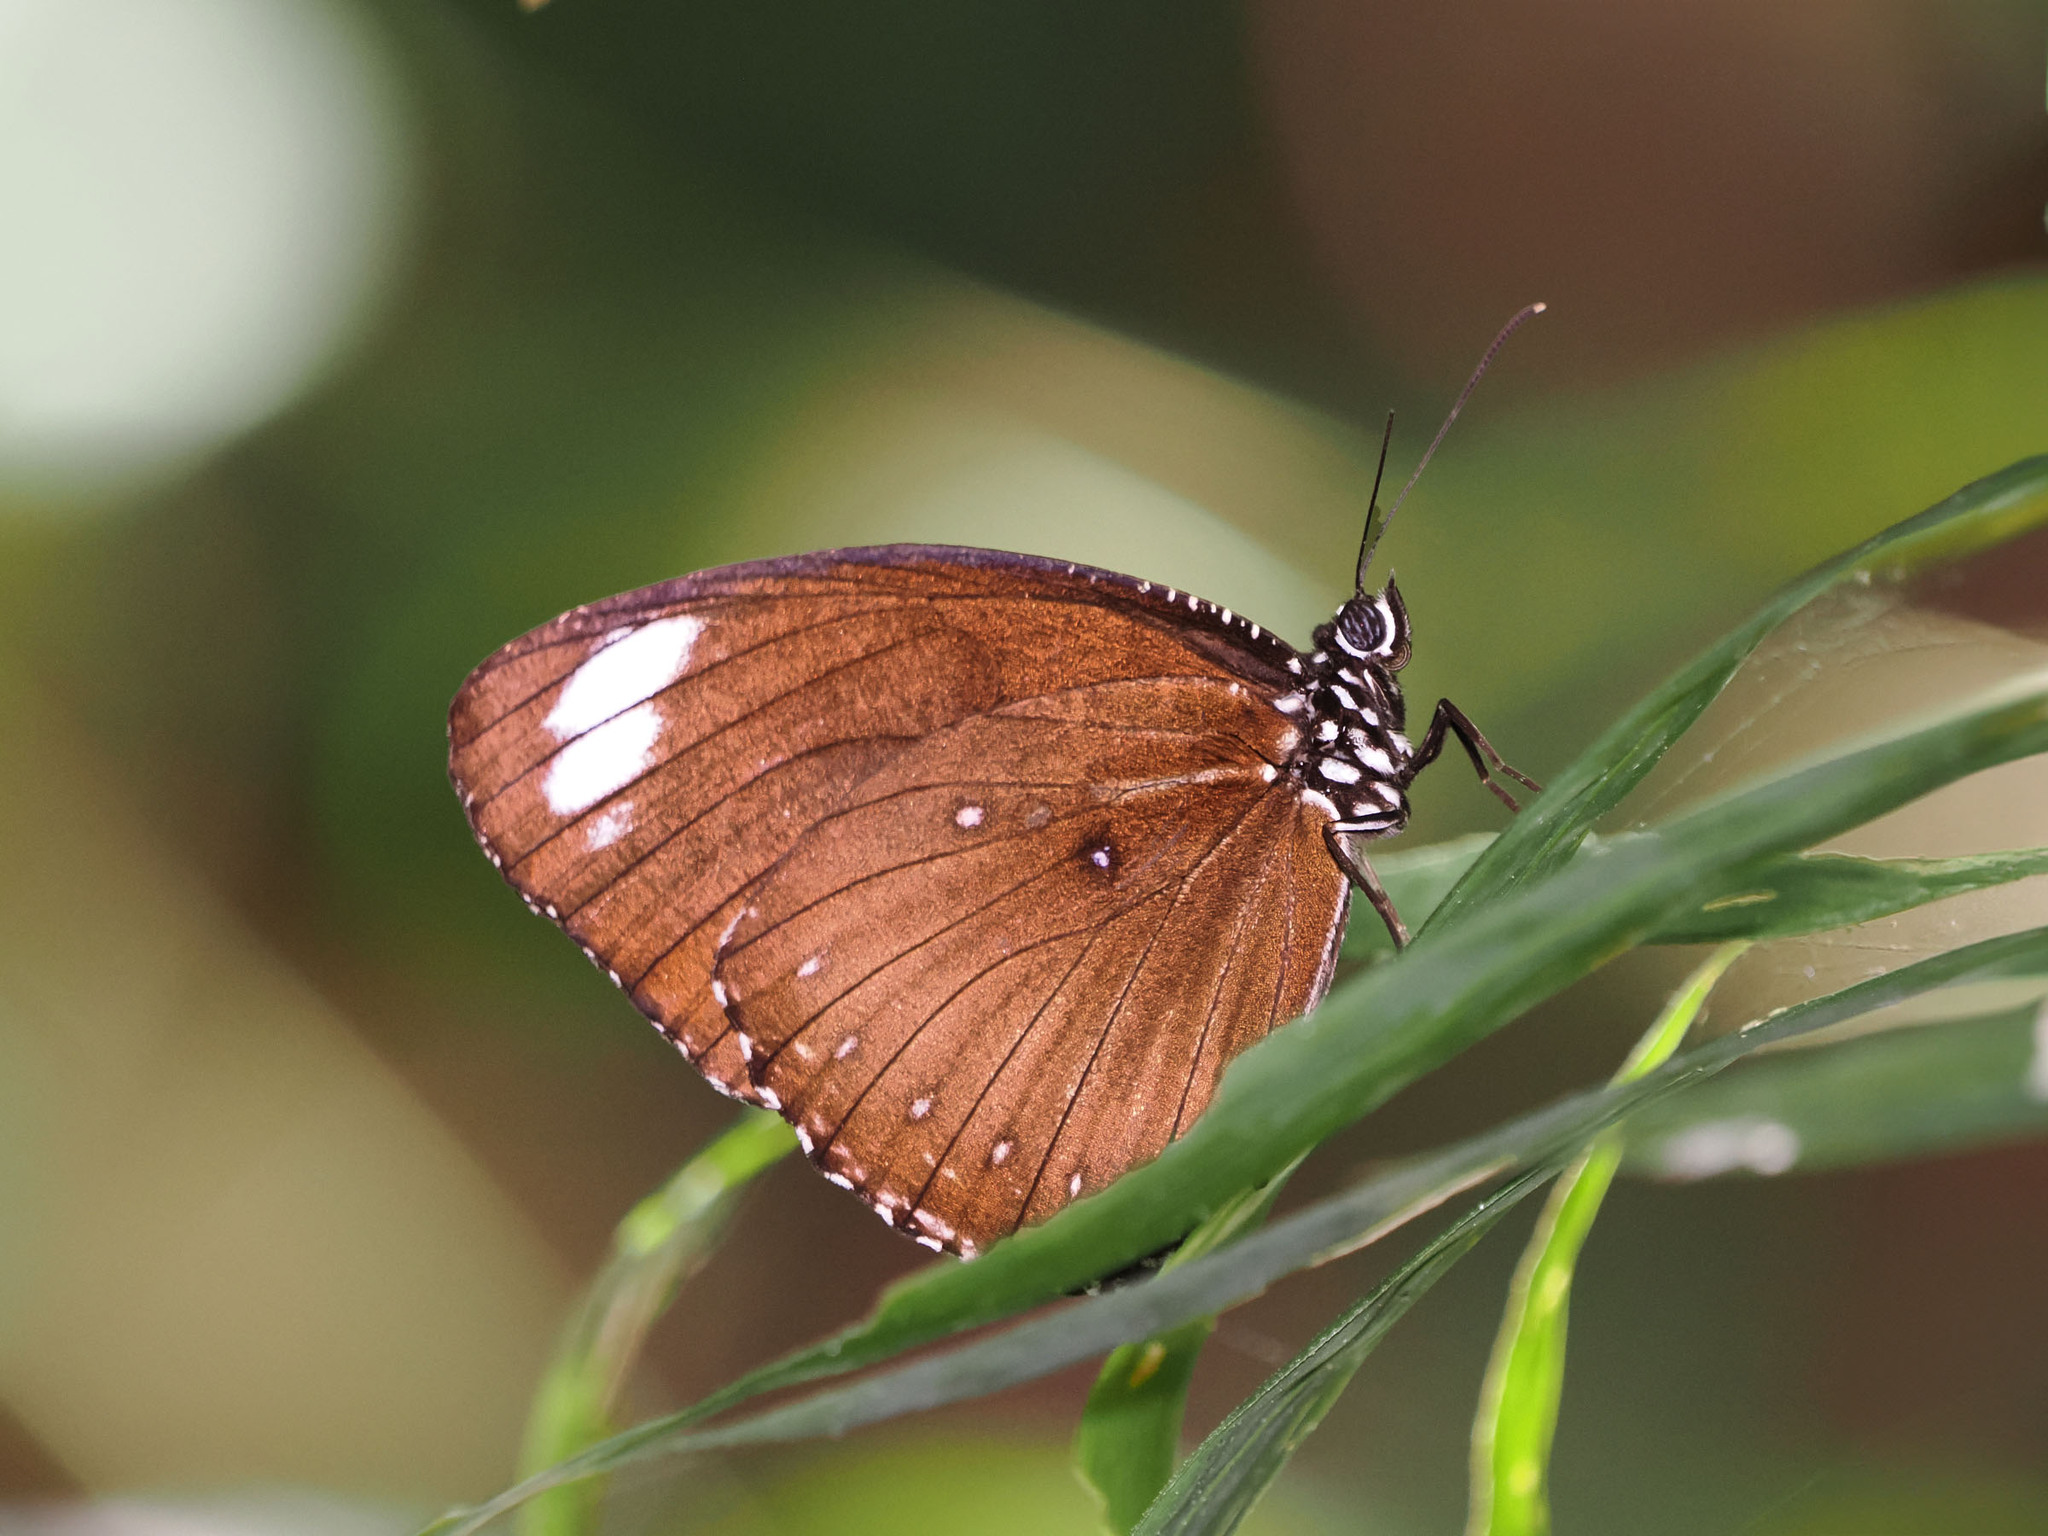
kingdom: Animalia
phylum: Arthropoda
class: Insecta
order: Lepidoptera
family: Nymphalidae
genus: Elymnias
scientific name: Elymnias melias
